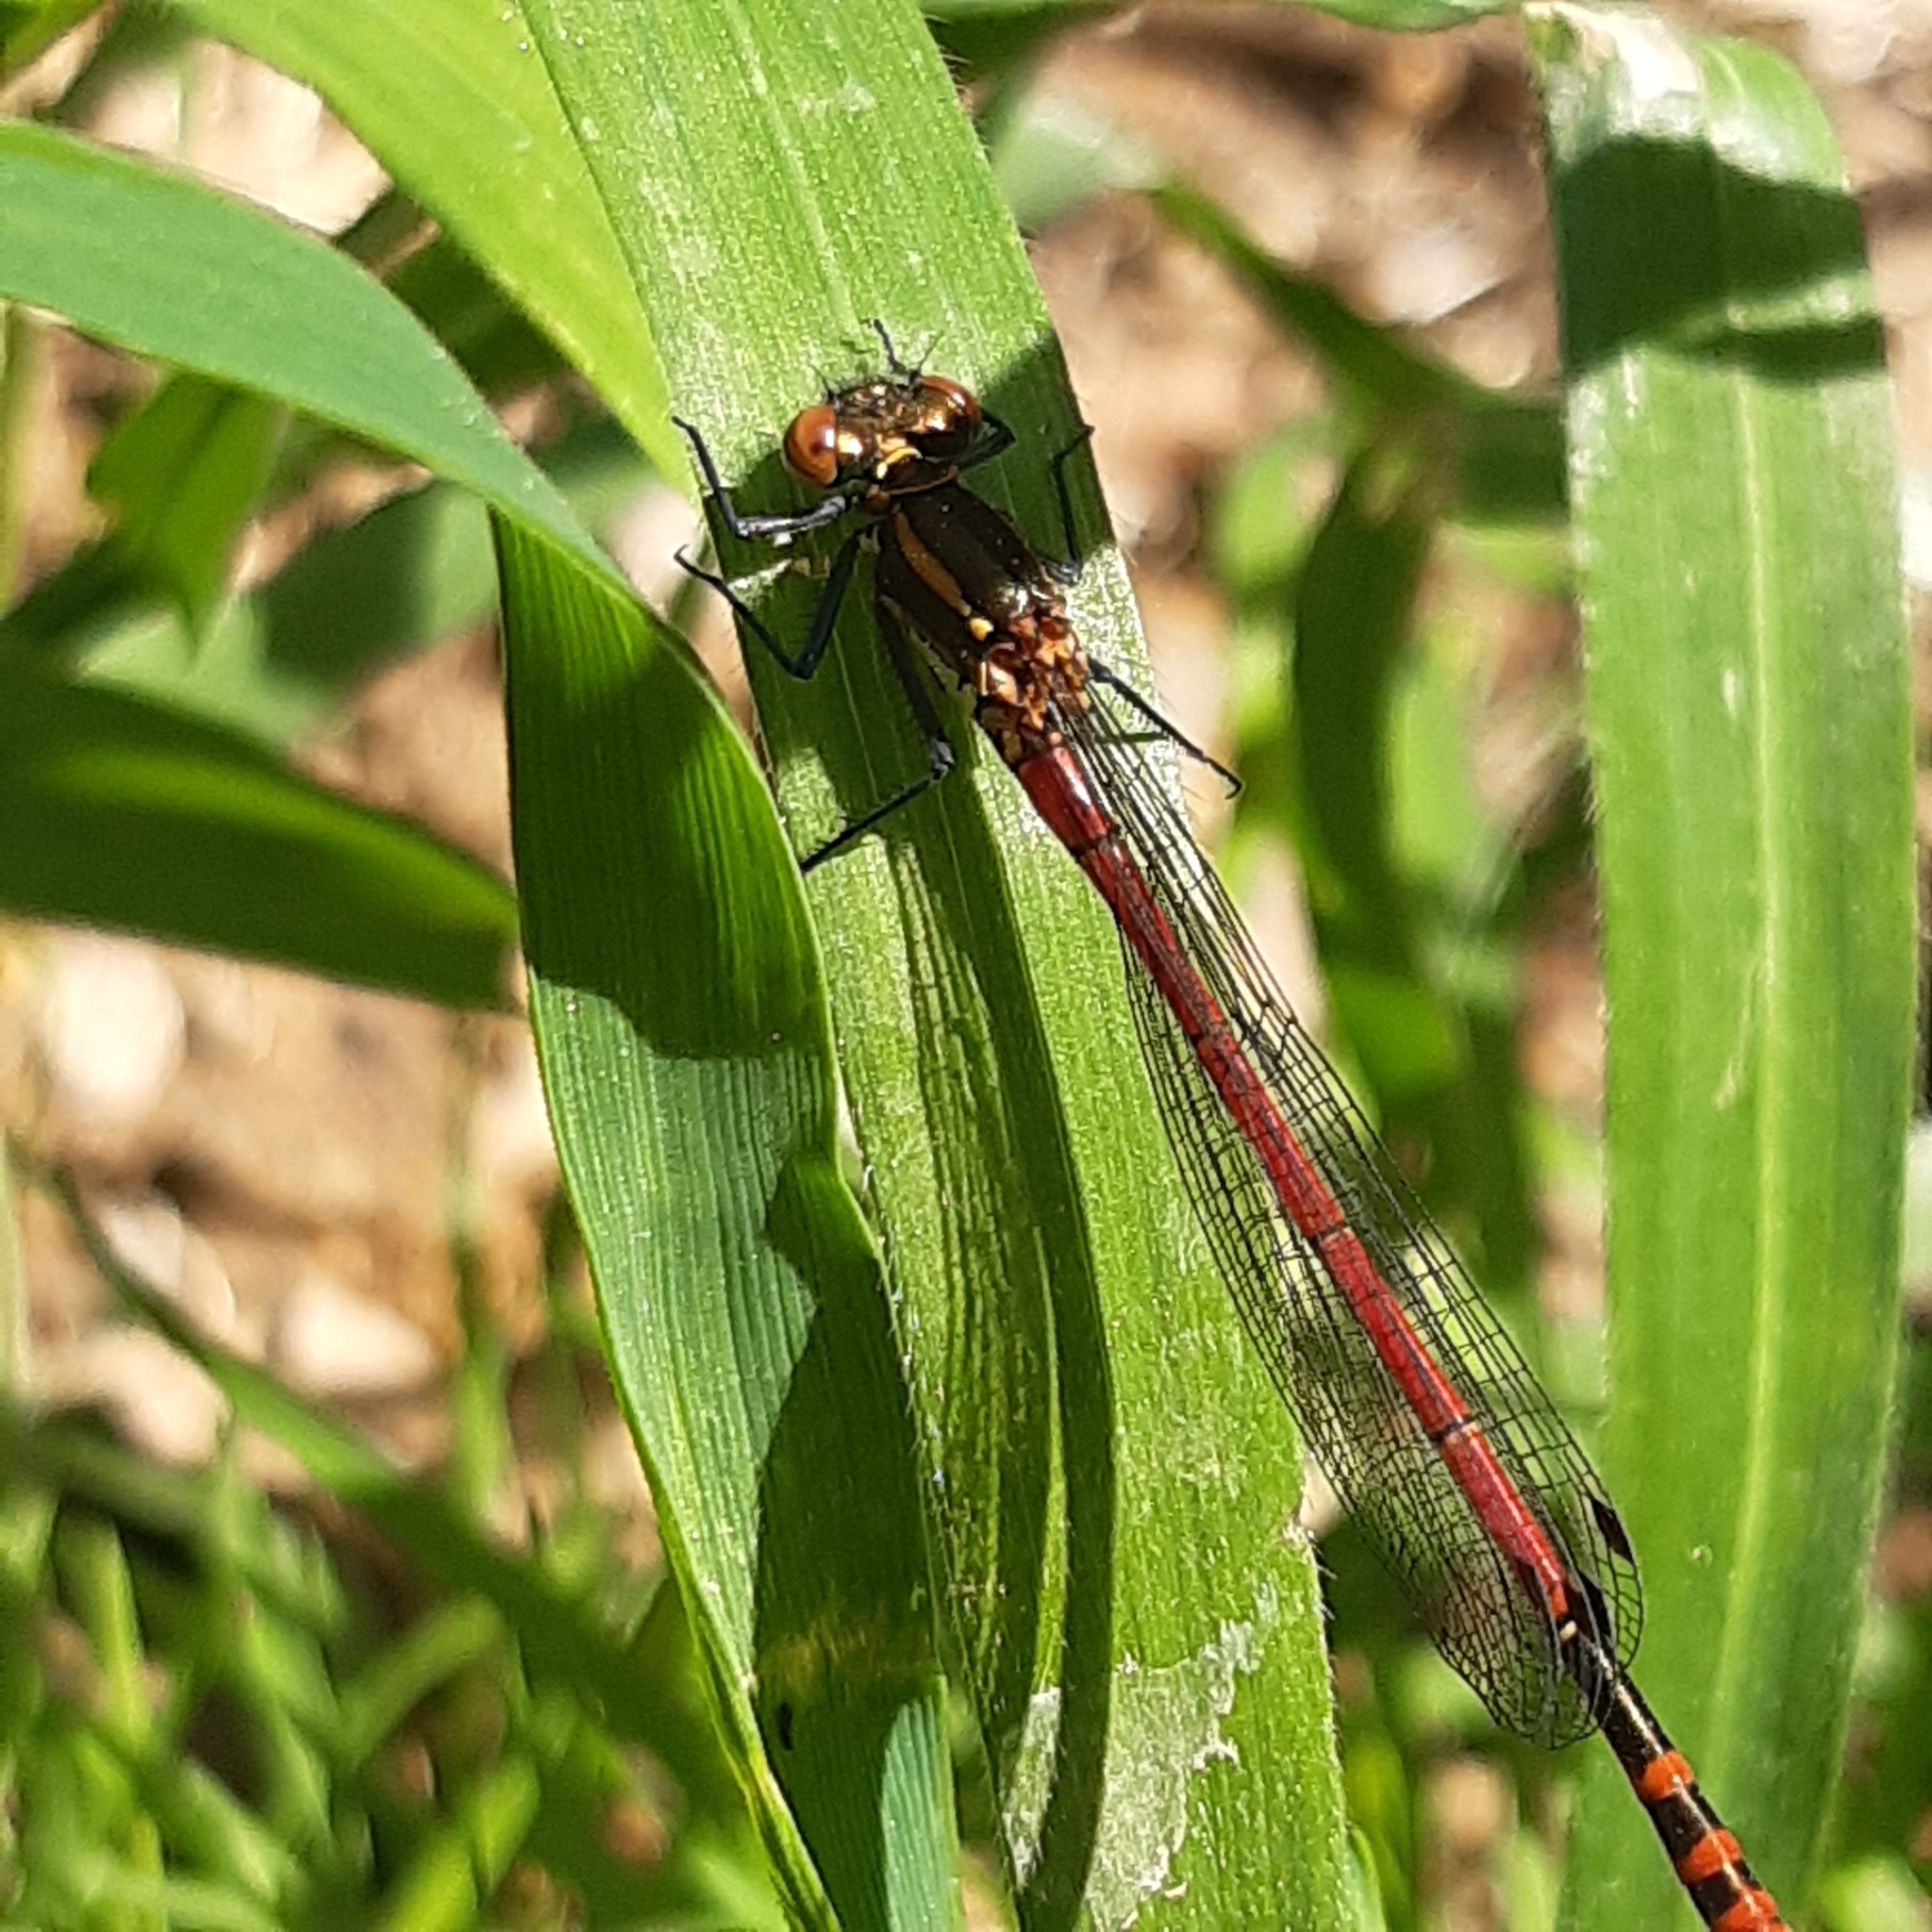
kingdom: Animalia
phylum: Arthropoda
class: Insecta
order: Odonata
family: Coenagrionidae
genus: Pyrrhosoma
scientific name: Pyrrhosoma nymphula
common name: Large red damsel
